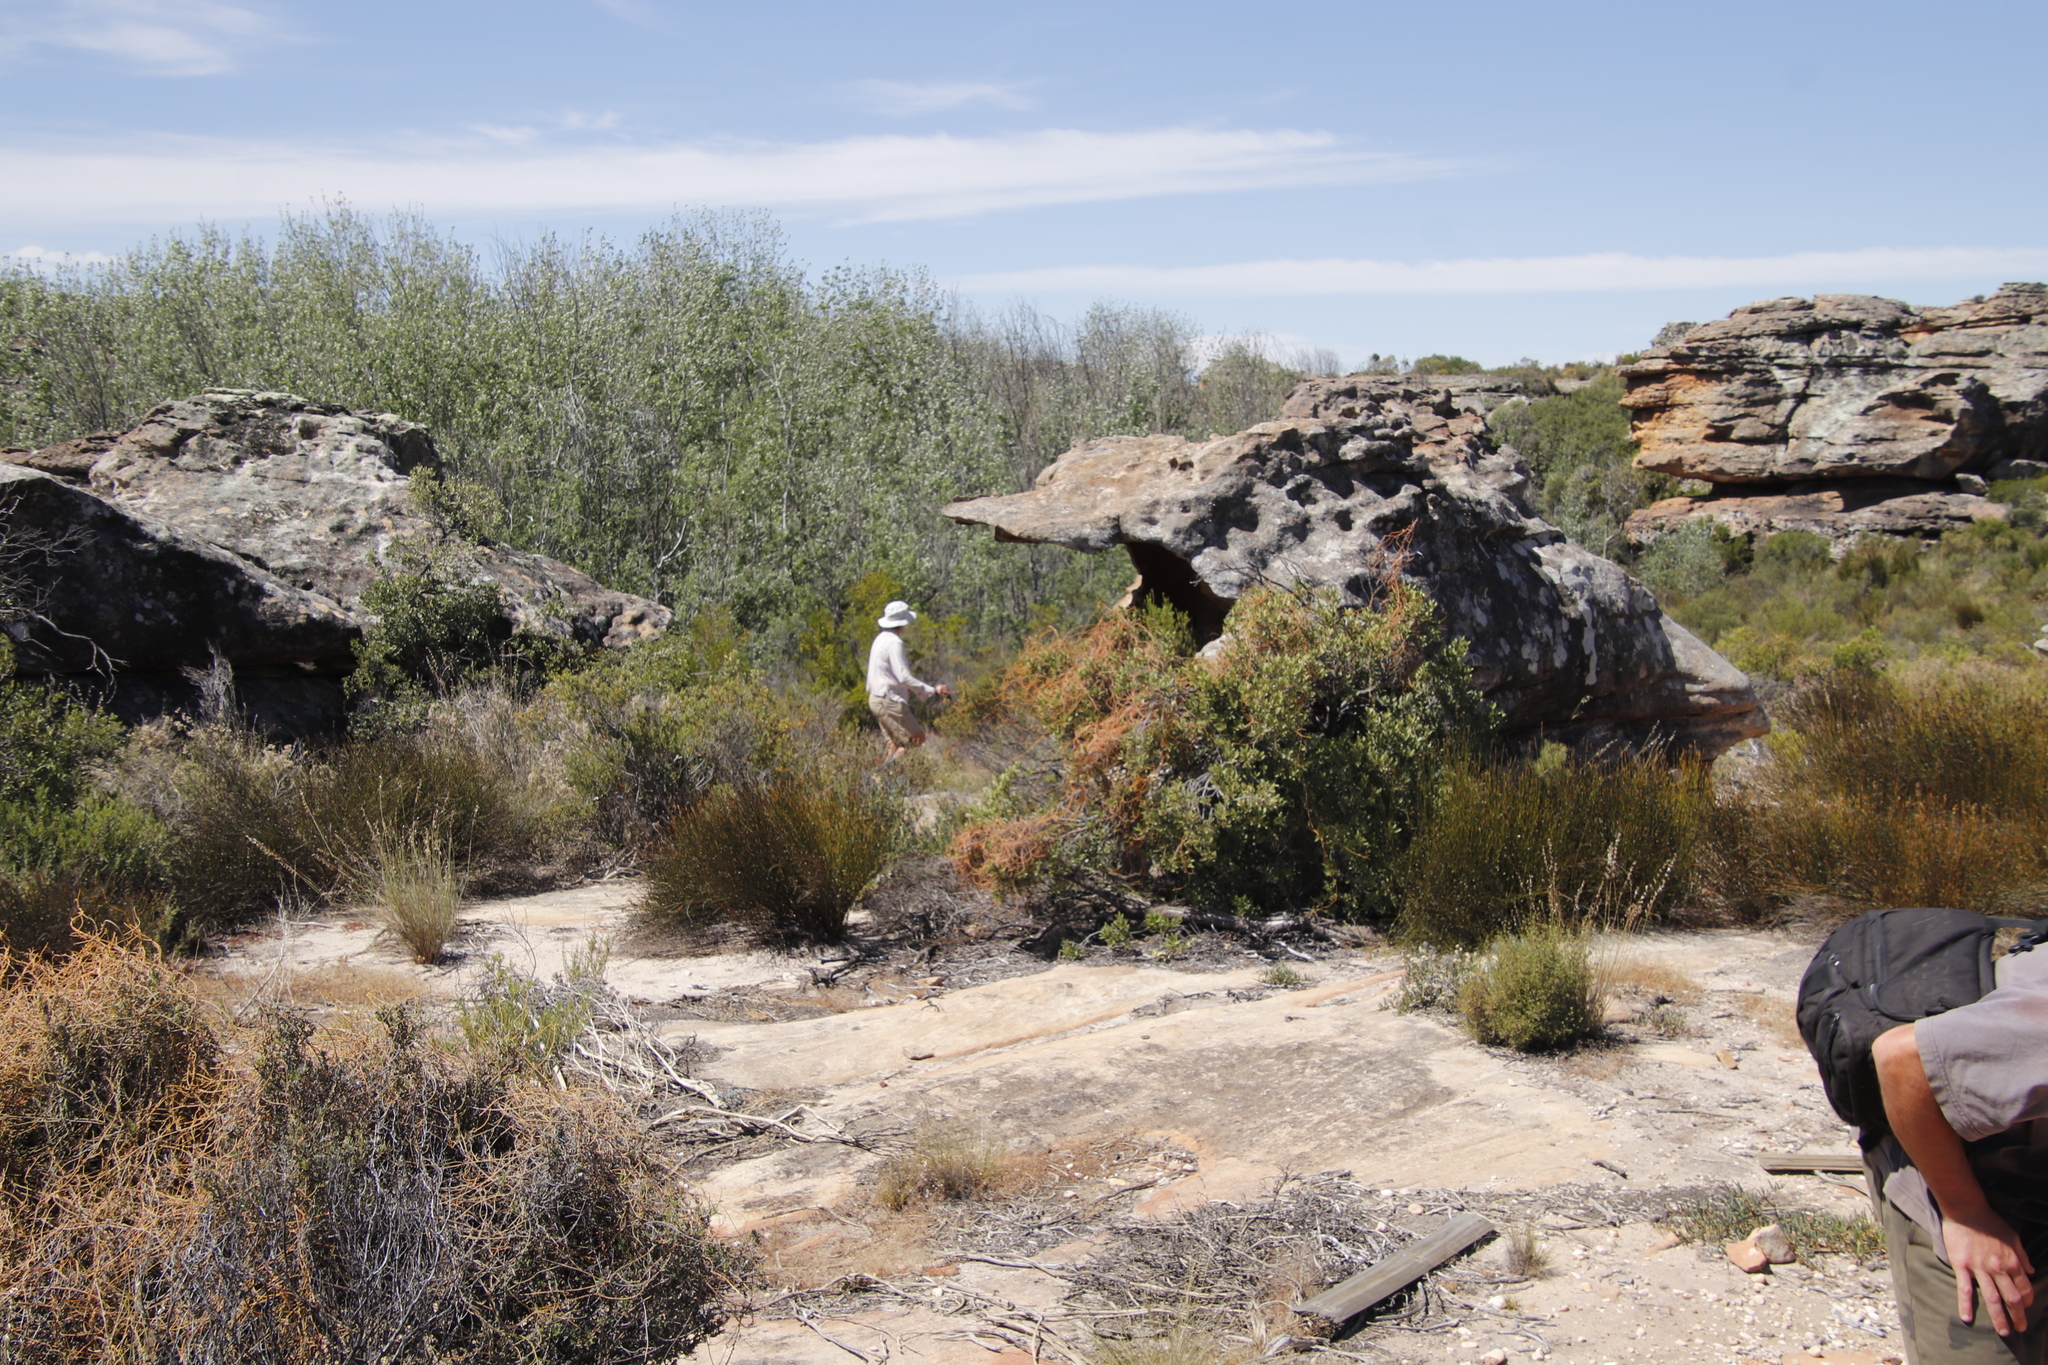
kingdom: Plantae
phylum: Tracheophyta
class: Magnoliopsida
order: Malpighiales
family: Salicaceae
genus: Populus
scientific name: Populus canescens
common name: Gray poplar
